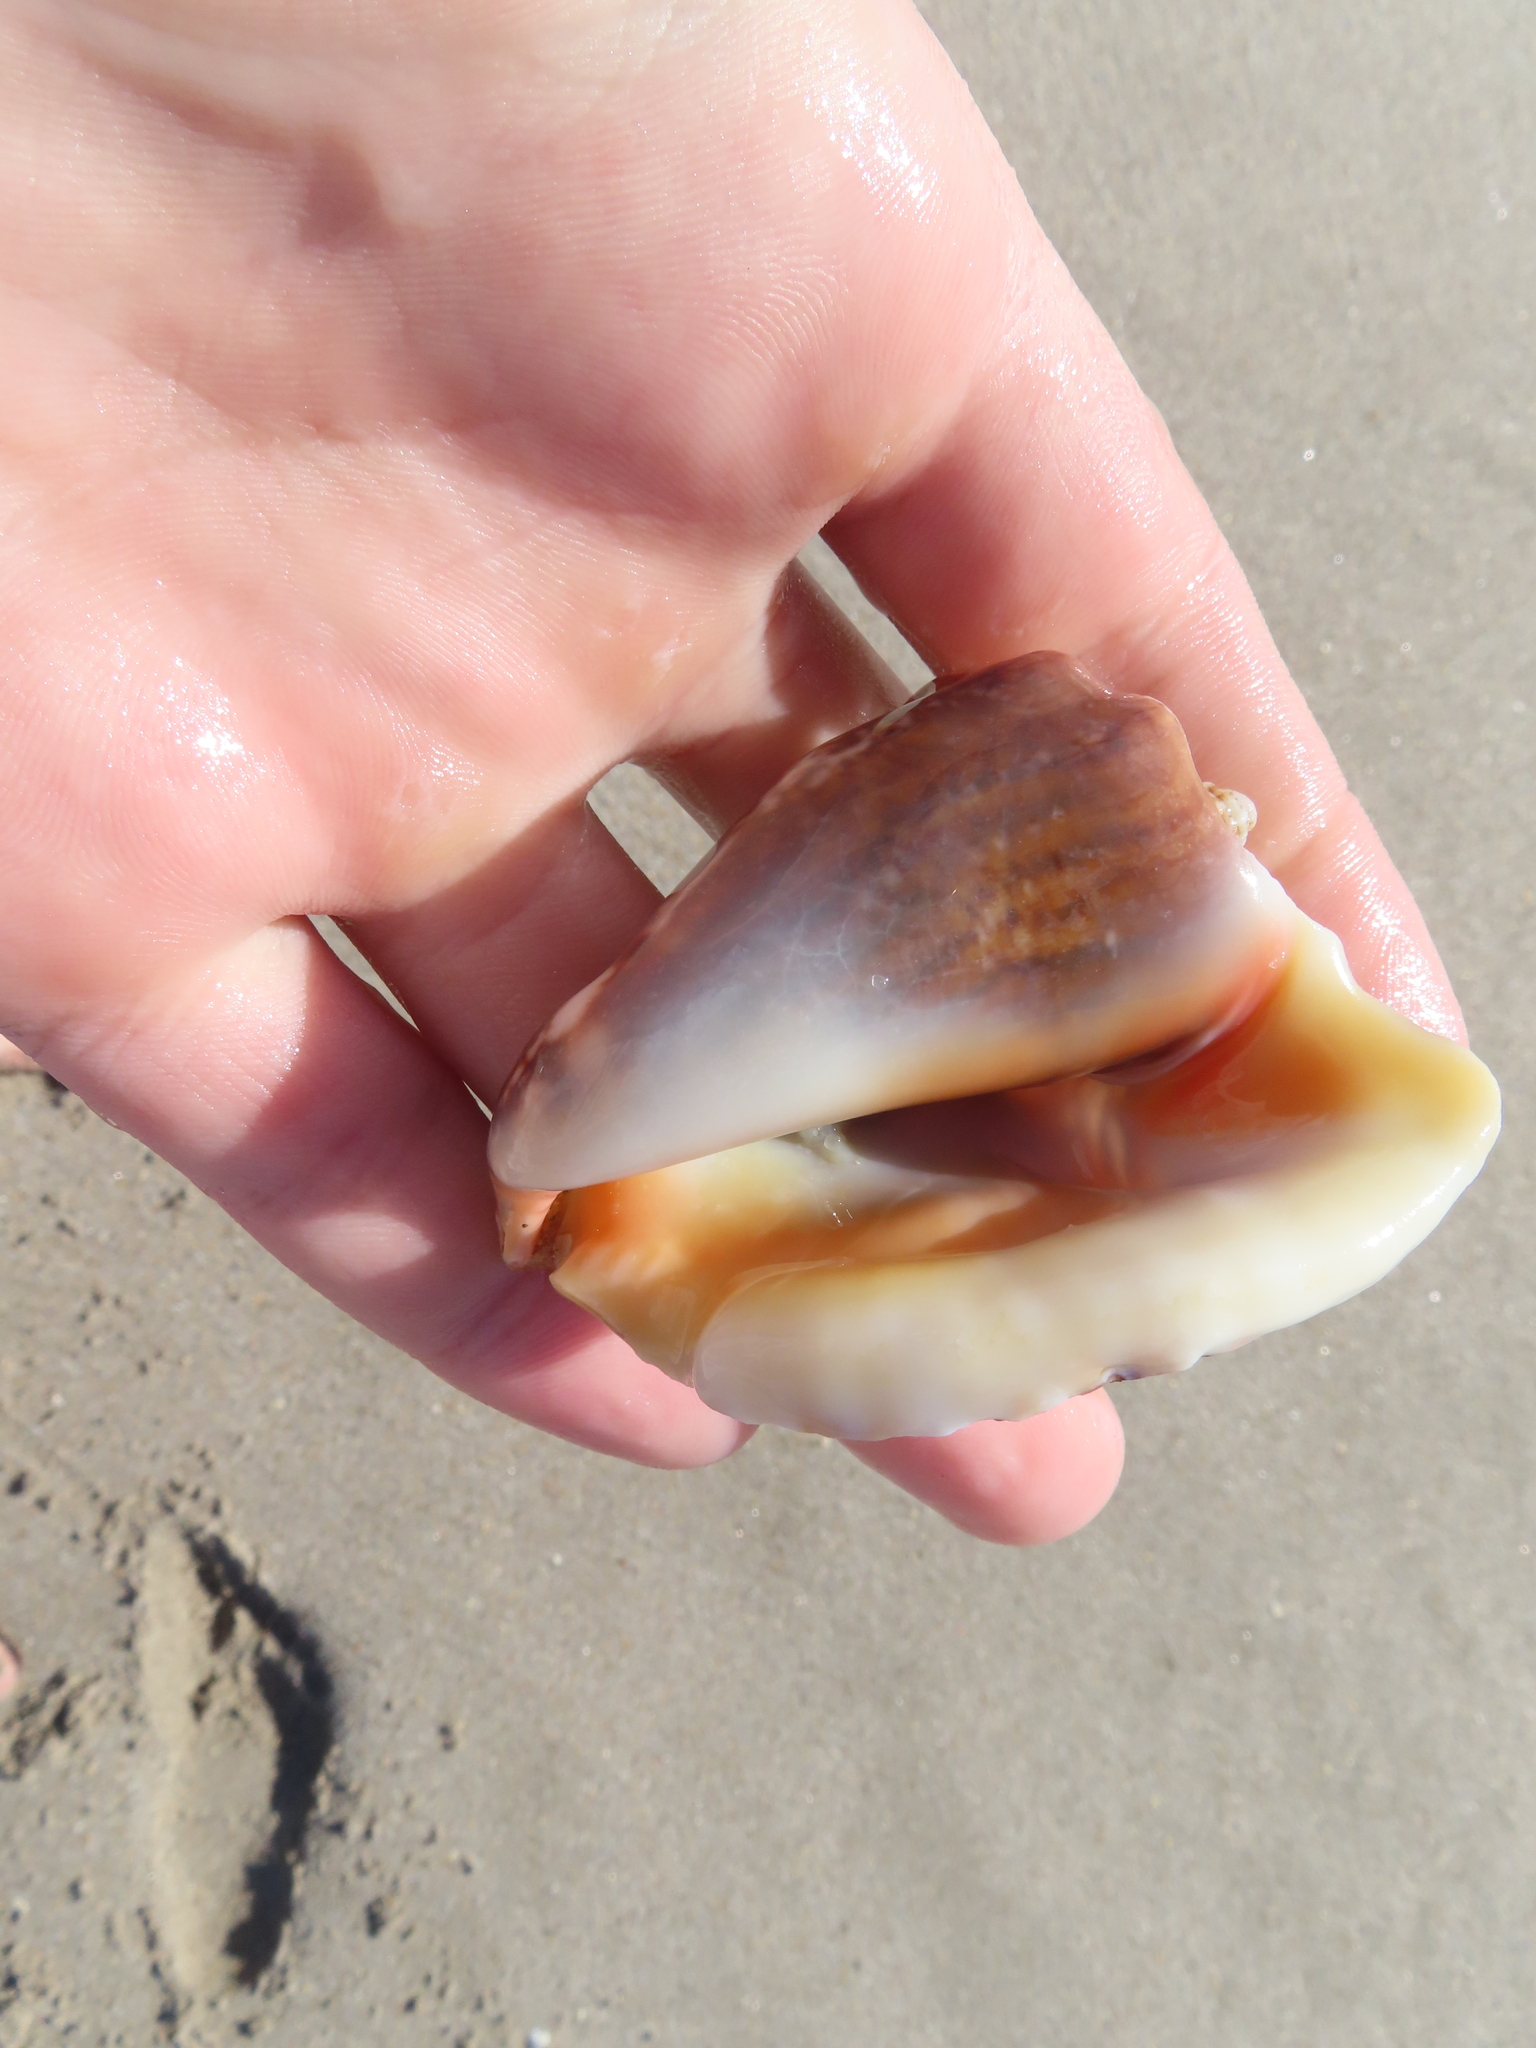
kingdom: Animalia
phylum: Mollusca
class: Gastropoda
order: Littorinimorpha
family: Strombidae
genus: Lobatus
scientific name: Lobatus raninus
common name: Hawk-wing conch
